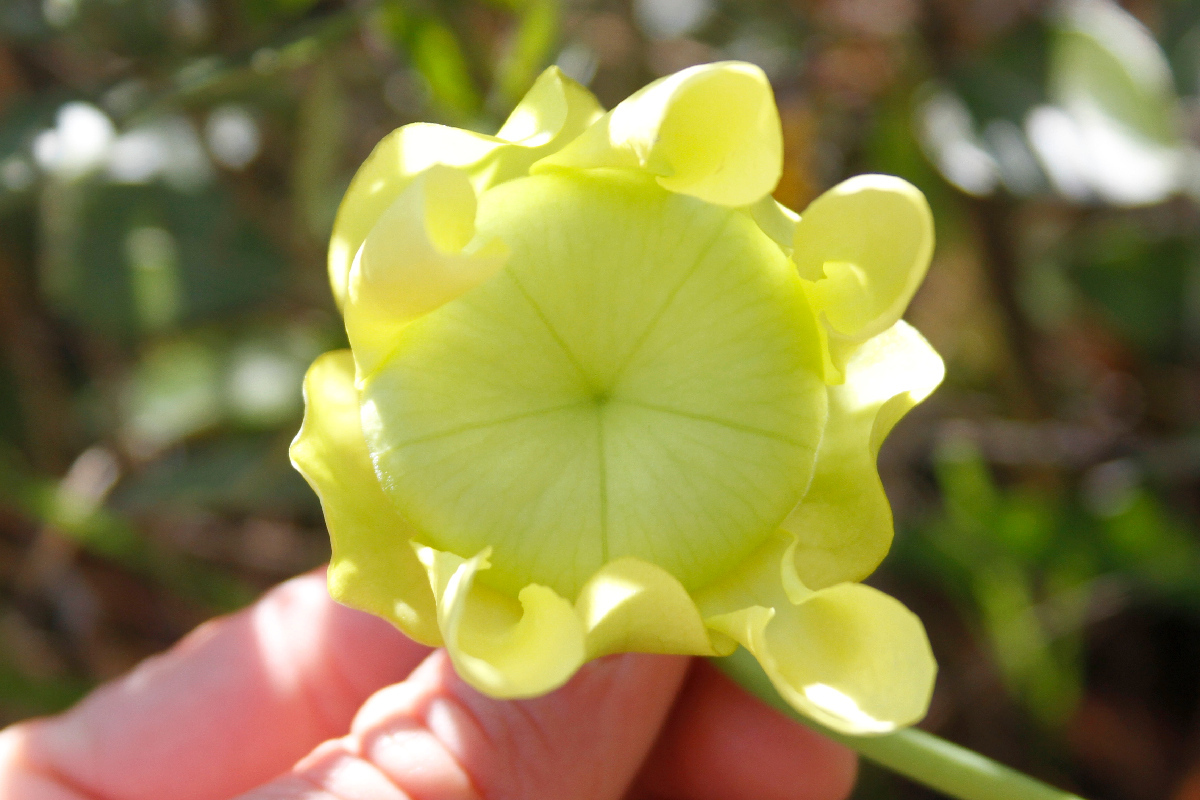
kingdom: Plantae
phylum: Tracheophyta
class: Magnoliopsida
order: Ericales
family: Sarraceniaceae
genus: Sarracenia
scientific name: Sarracenia
